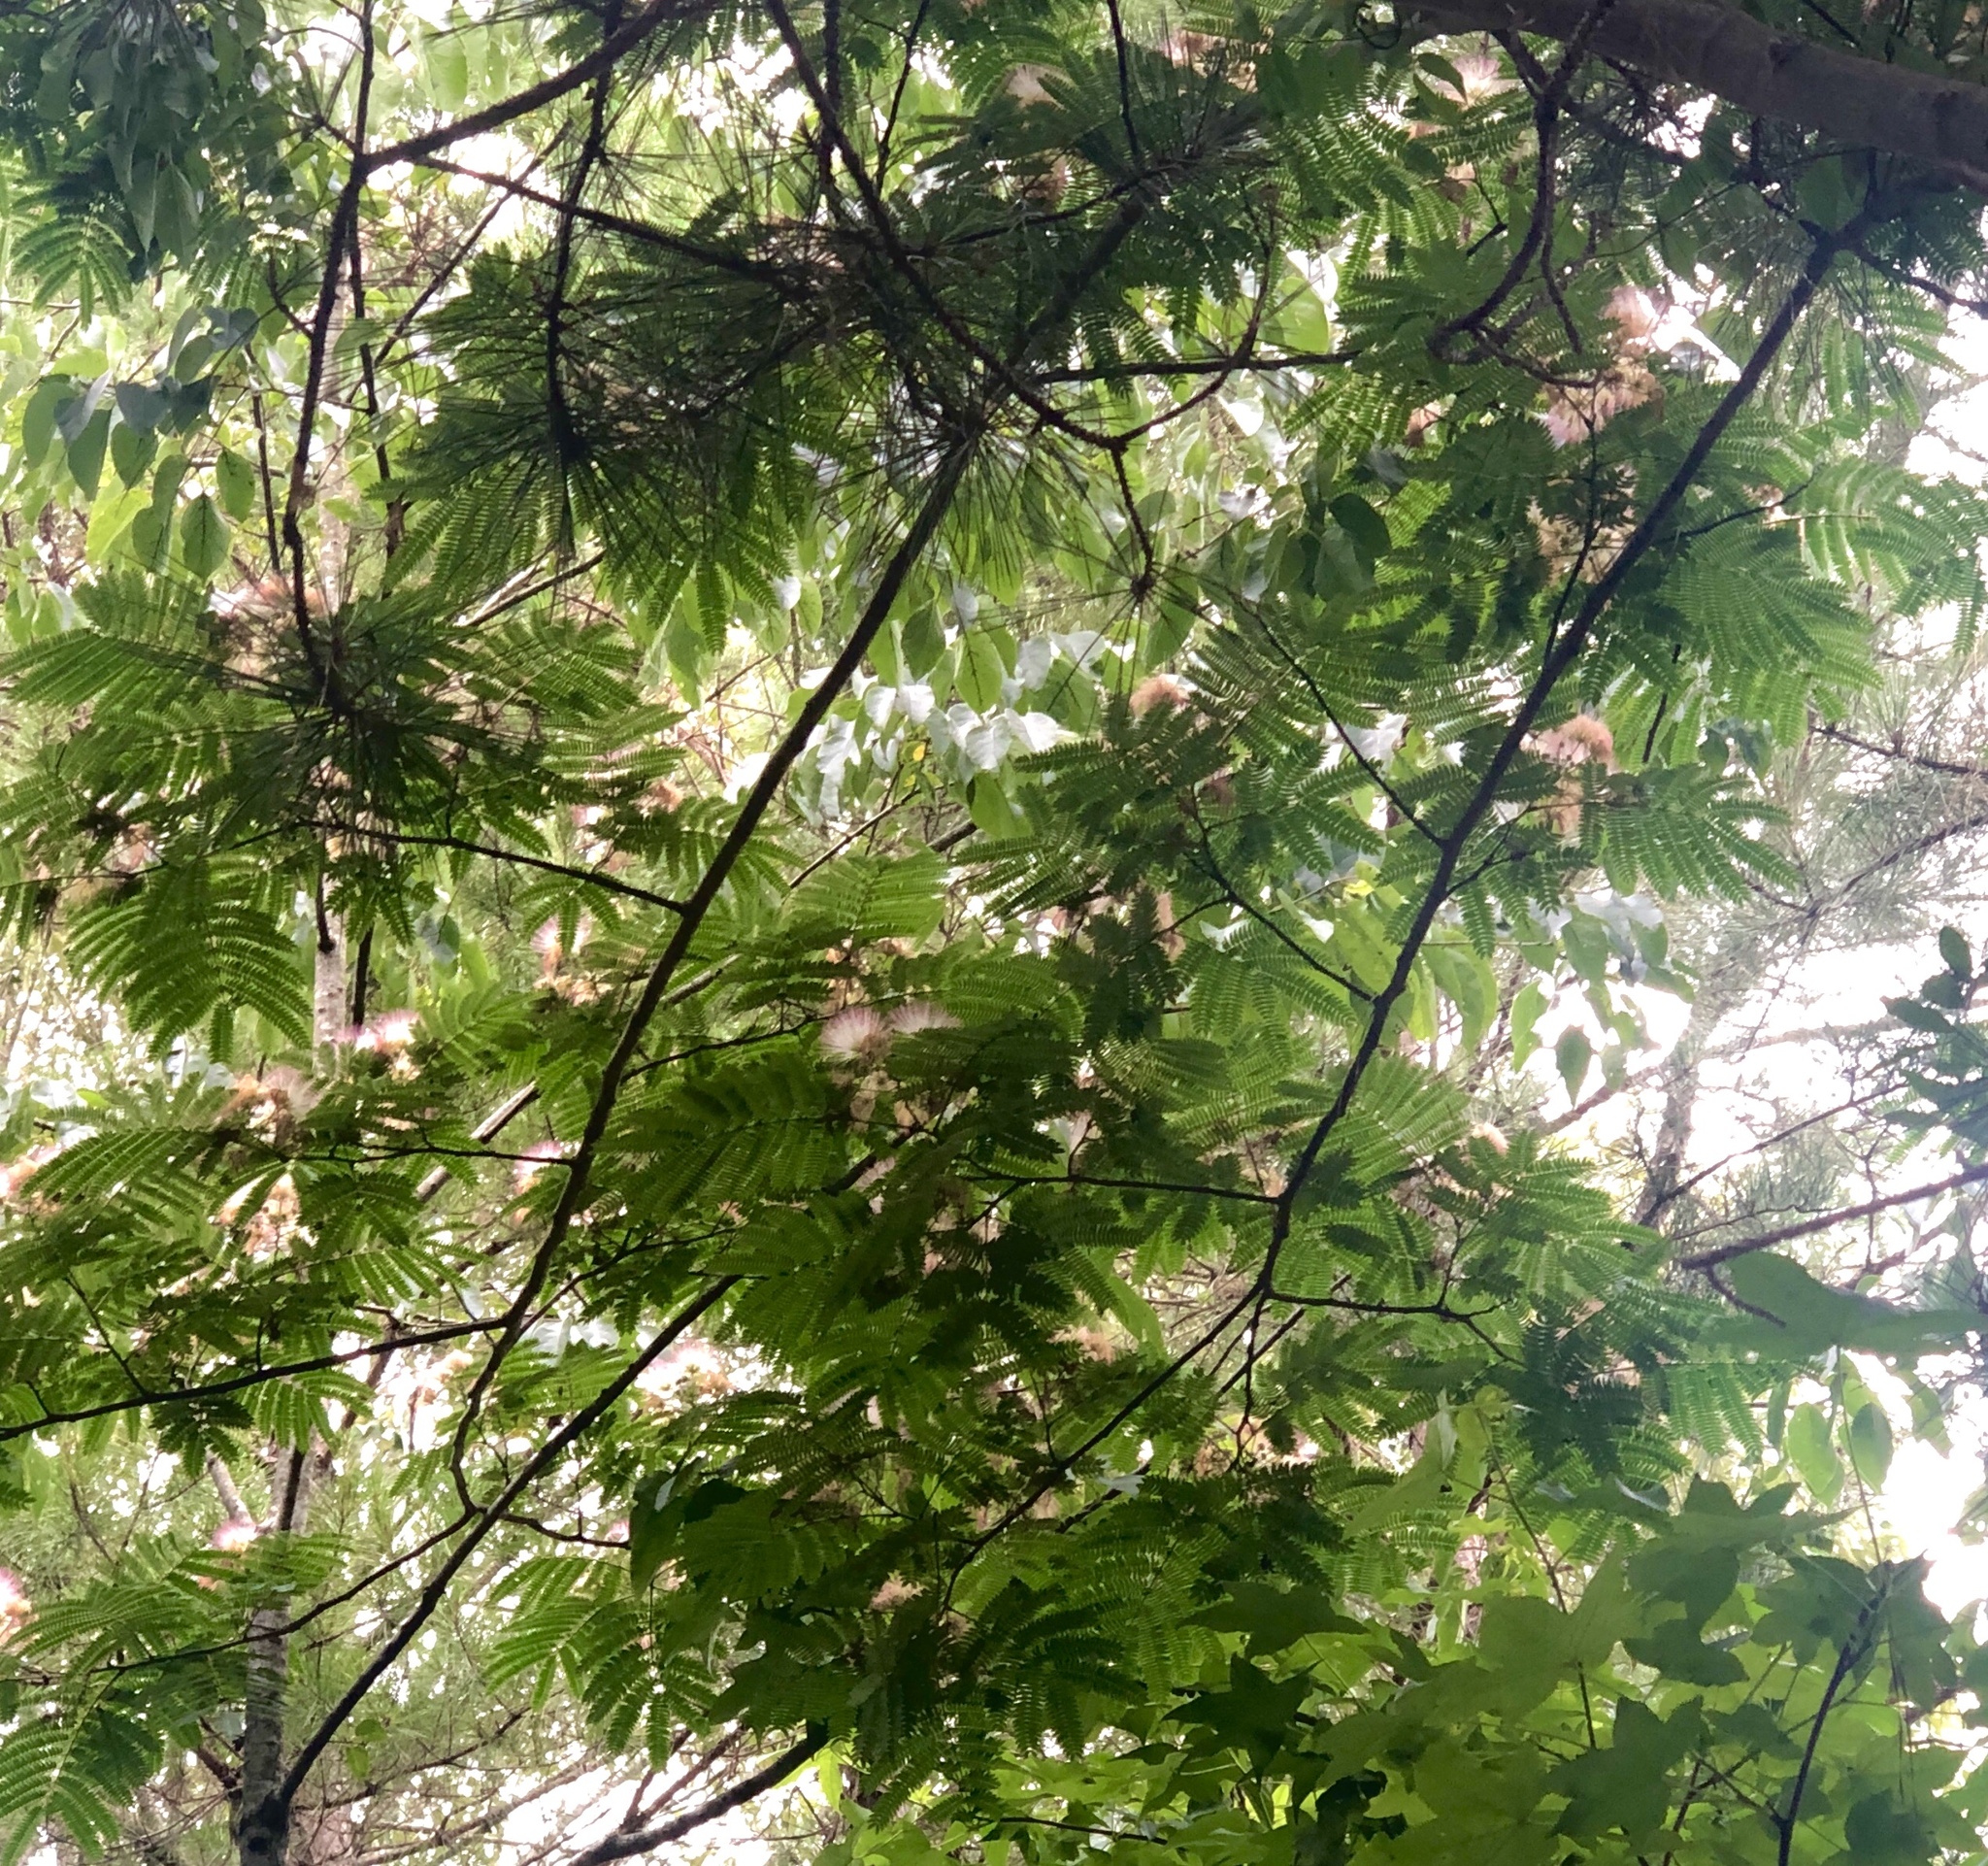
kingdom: Plantae
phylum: Tracheophyta
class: Magnoliopsida
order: Fabales
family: Fabaceae
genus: Albizia
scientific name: Albizia julibrissin
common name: Silktree
